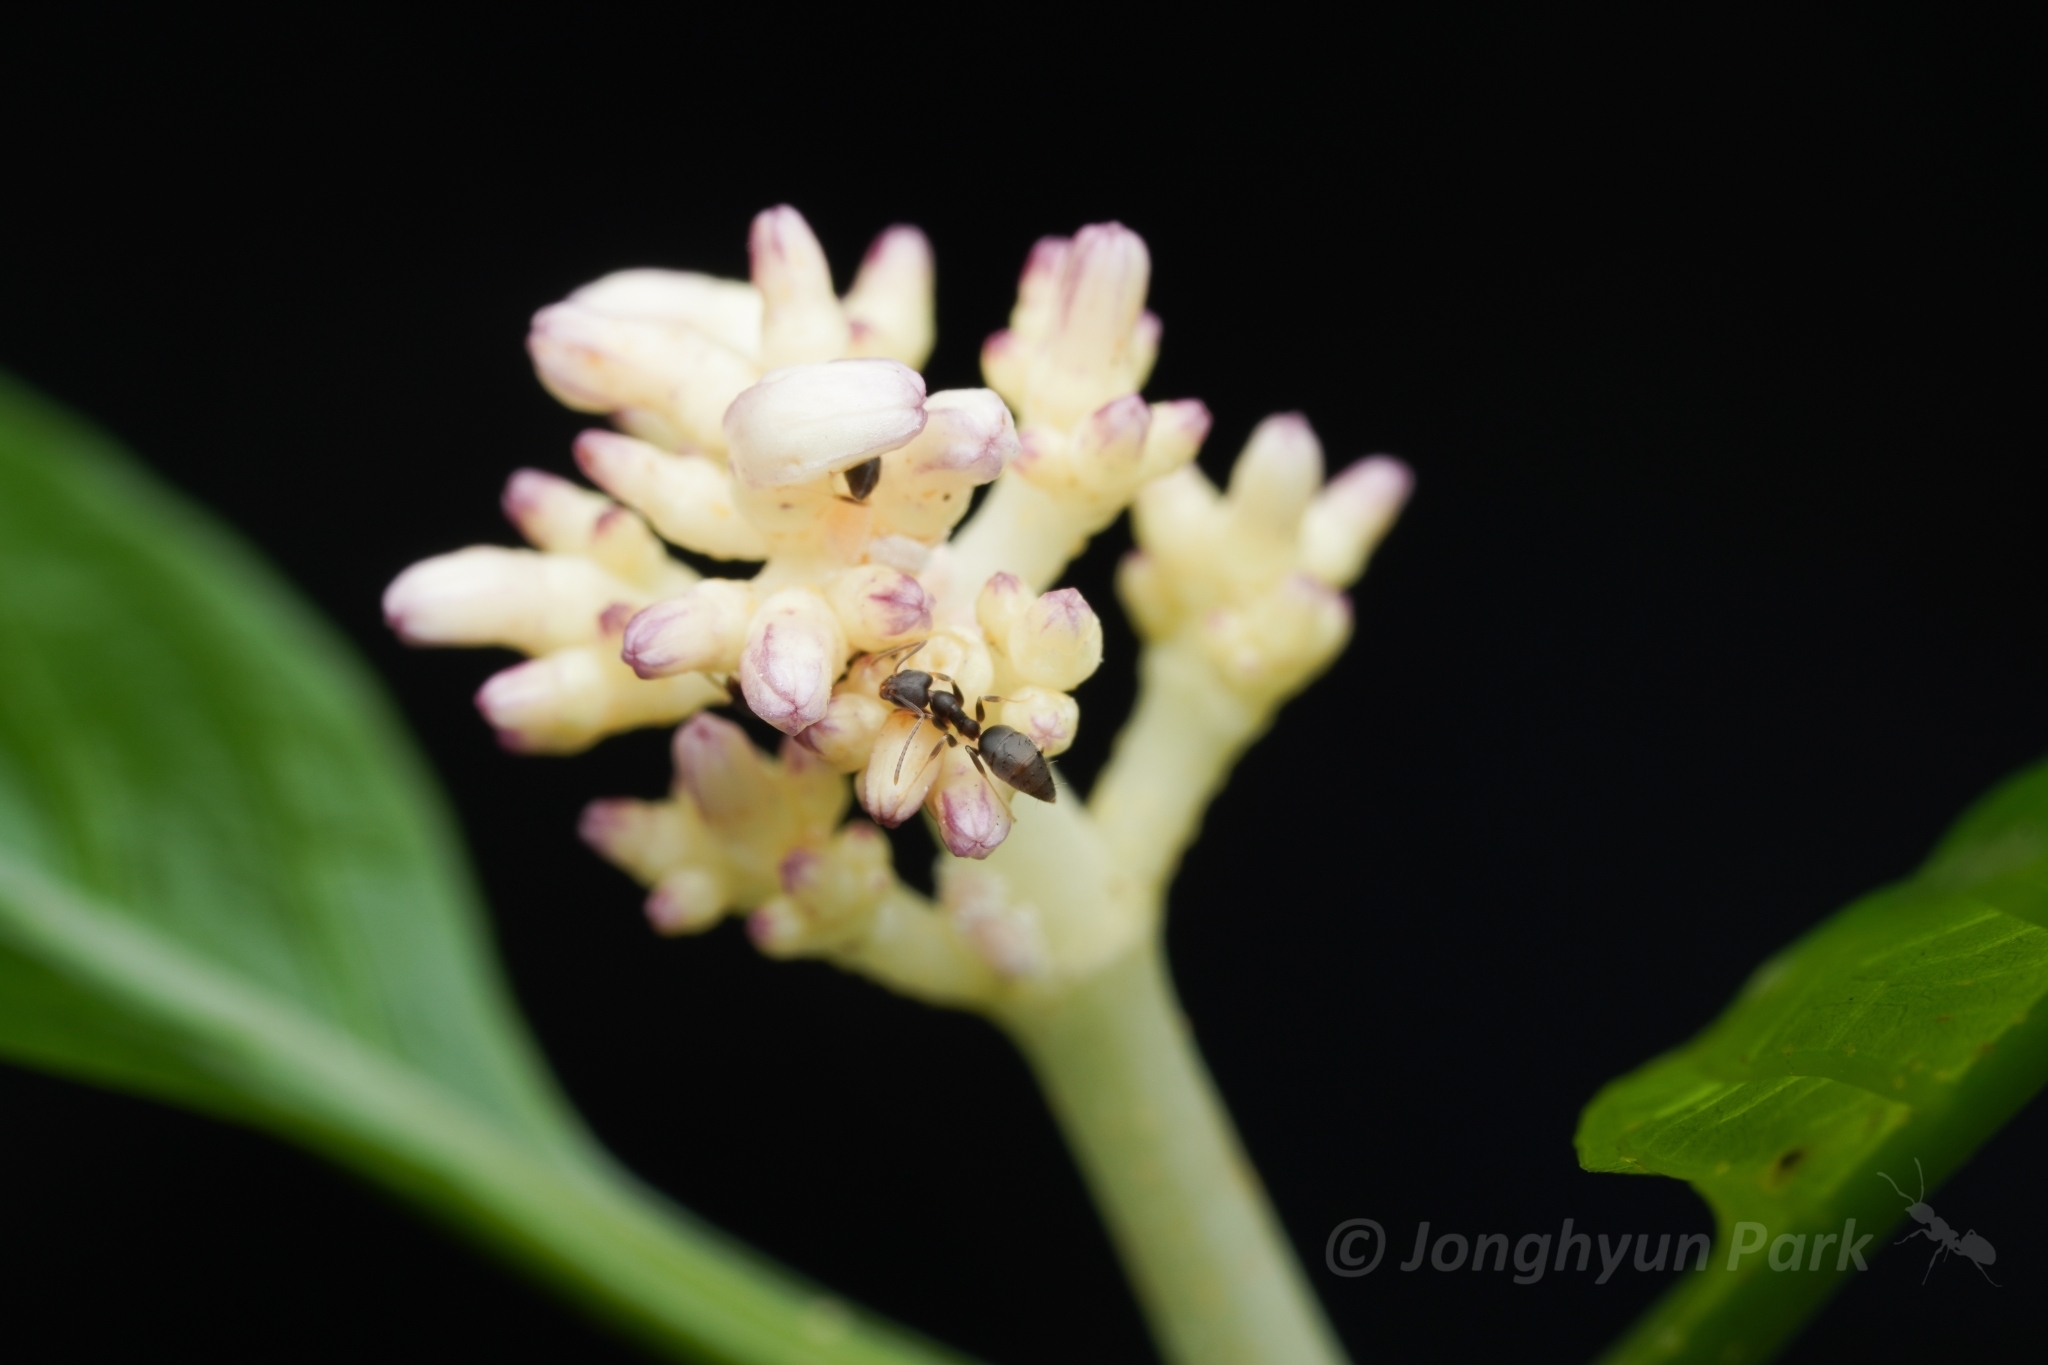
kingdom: Animalia
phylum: Arthropoda
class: Insecta
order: Hymenoptera
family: Formicidae
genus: Technomyrmex
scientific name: Technomyrmex
